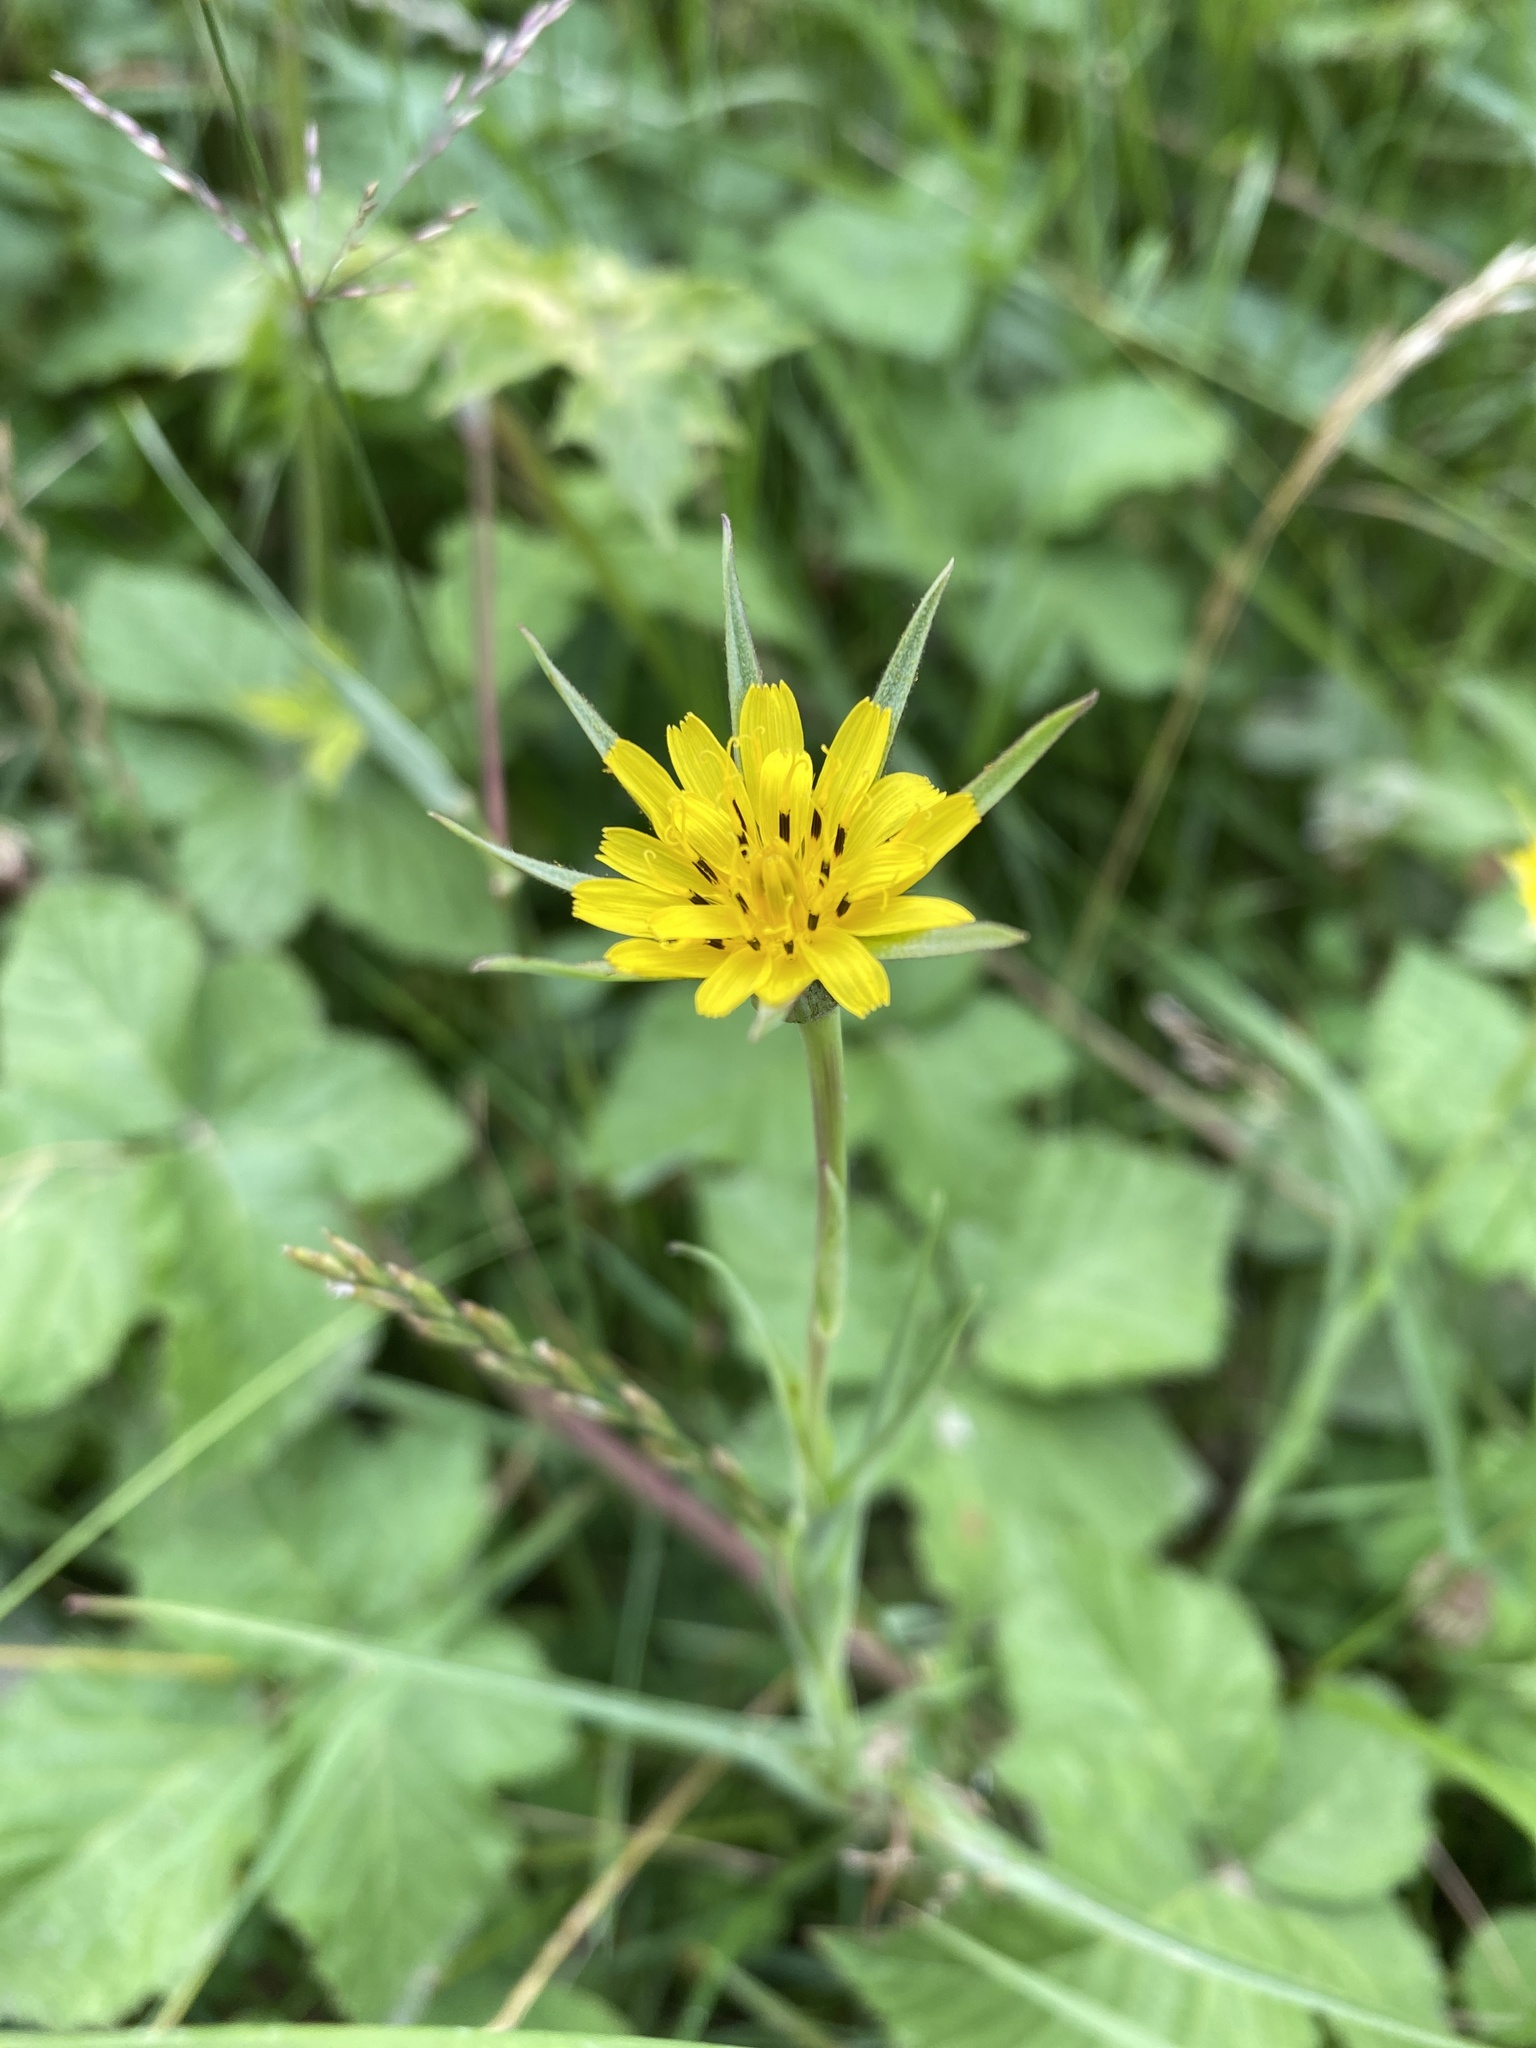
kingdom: Plantae
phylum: Tracheophyta
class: Magnoliopsida
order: Asterales
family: Asteraceae
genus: Tragopogon
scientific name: Tragopogon pratensis
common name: Goat's-beard
